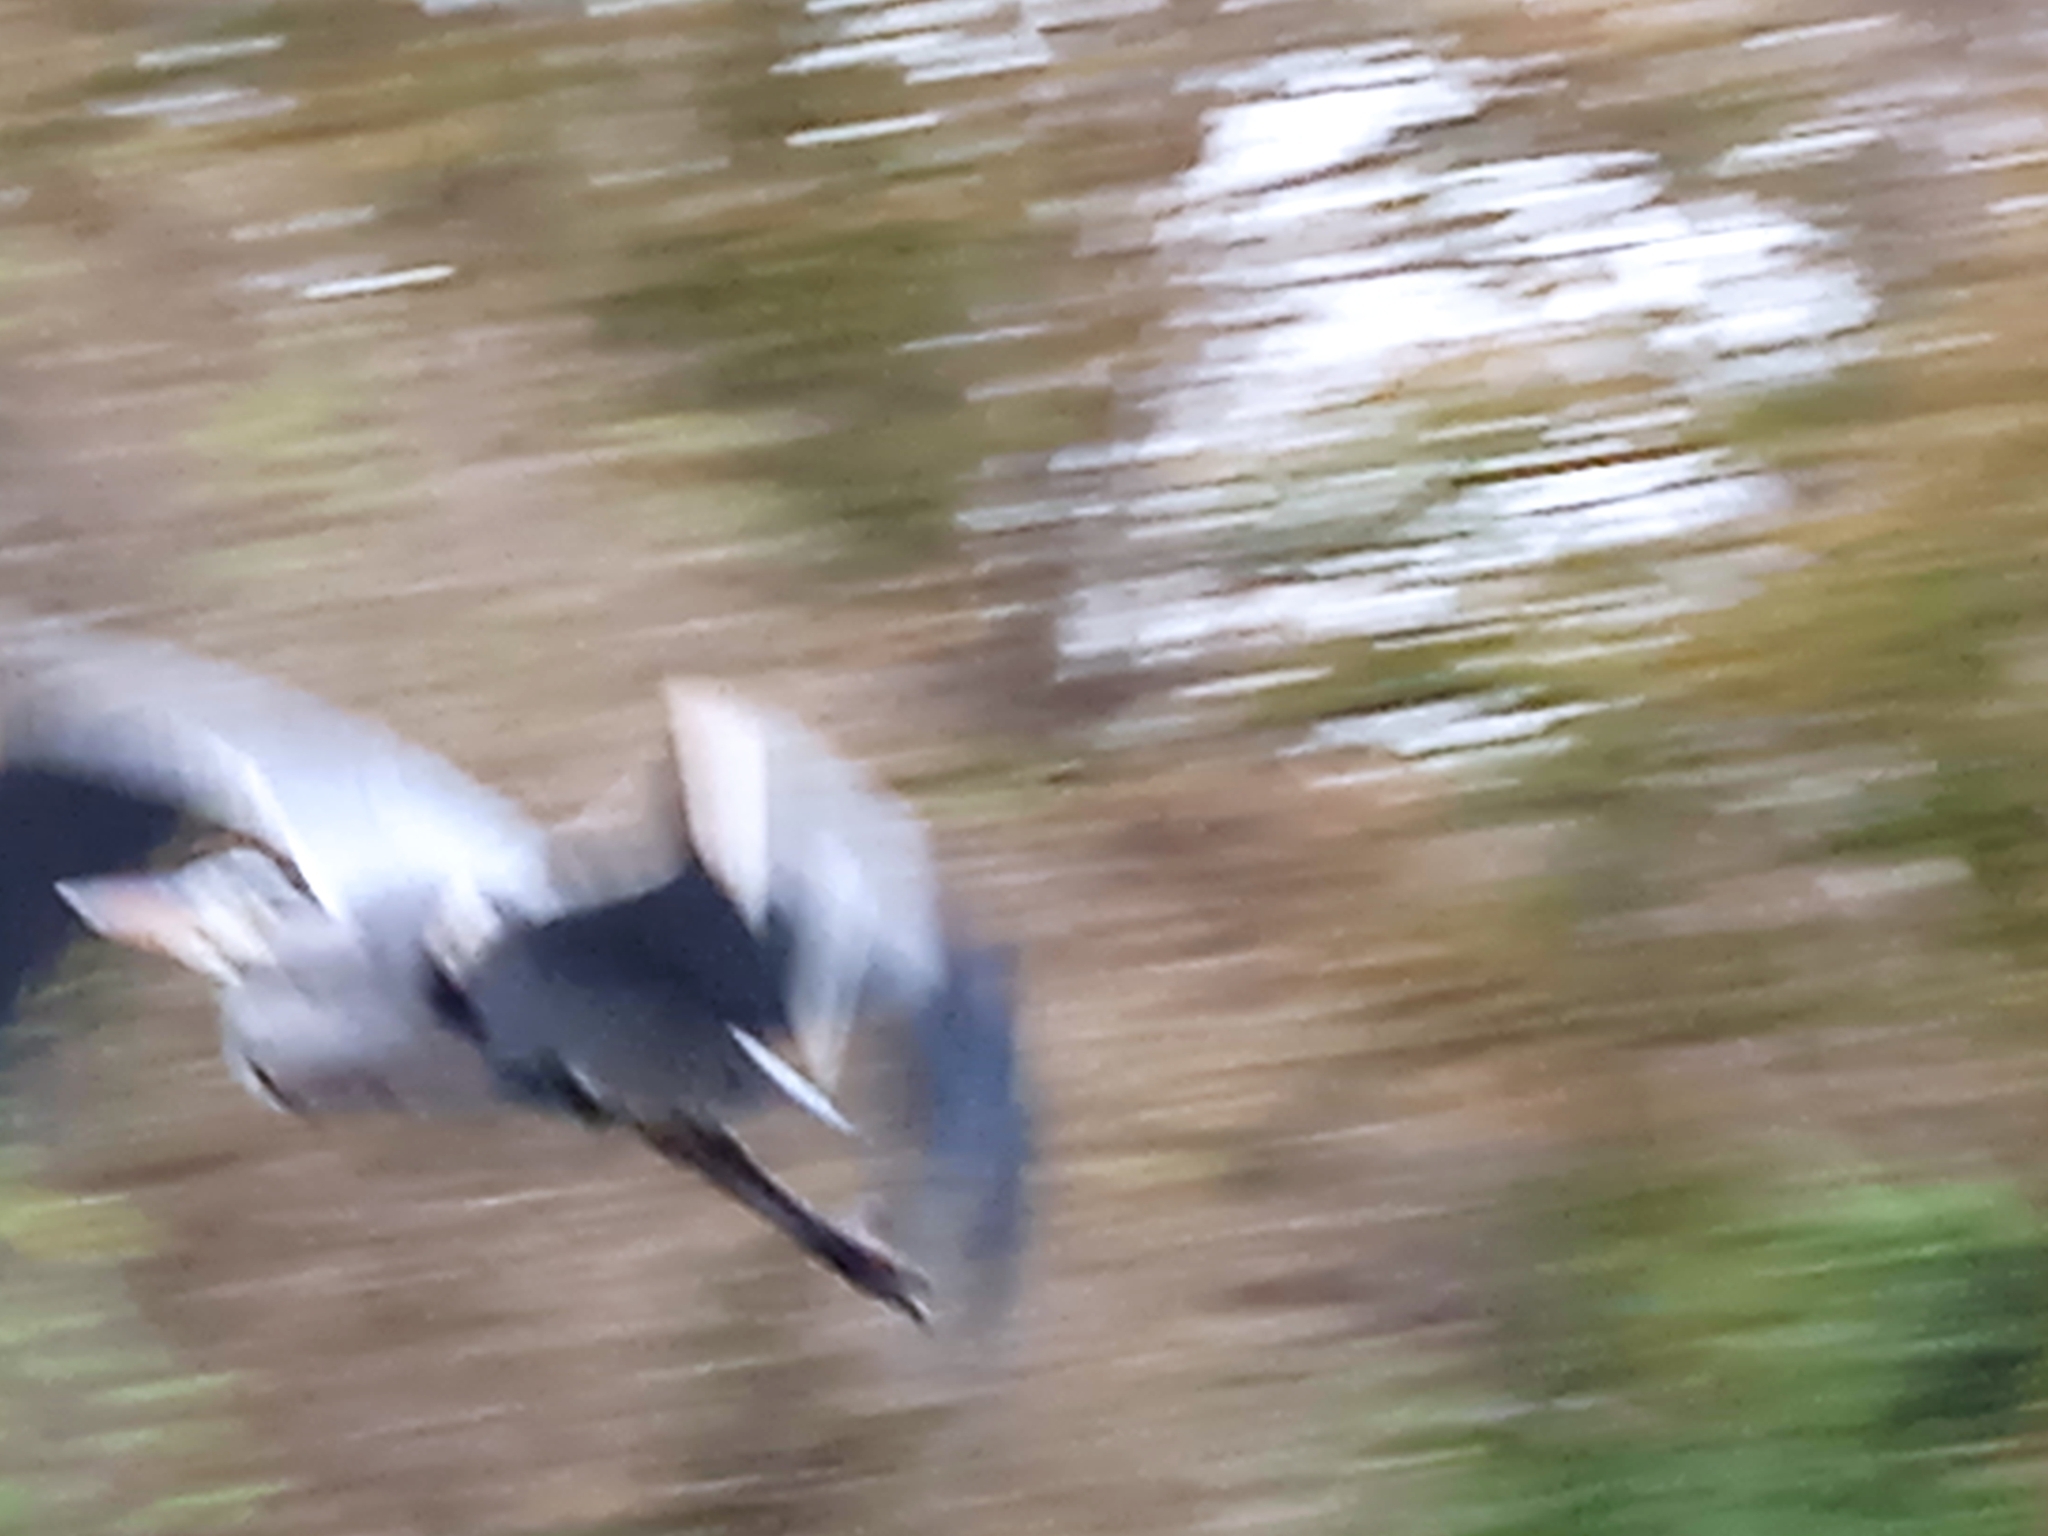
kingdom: Animalia
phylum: Chordata
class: Aves
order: Pelecaniformes
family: Ardeidae
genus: Ardea
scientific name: Ardea cinerea
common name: Grey heron
